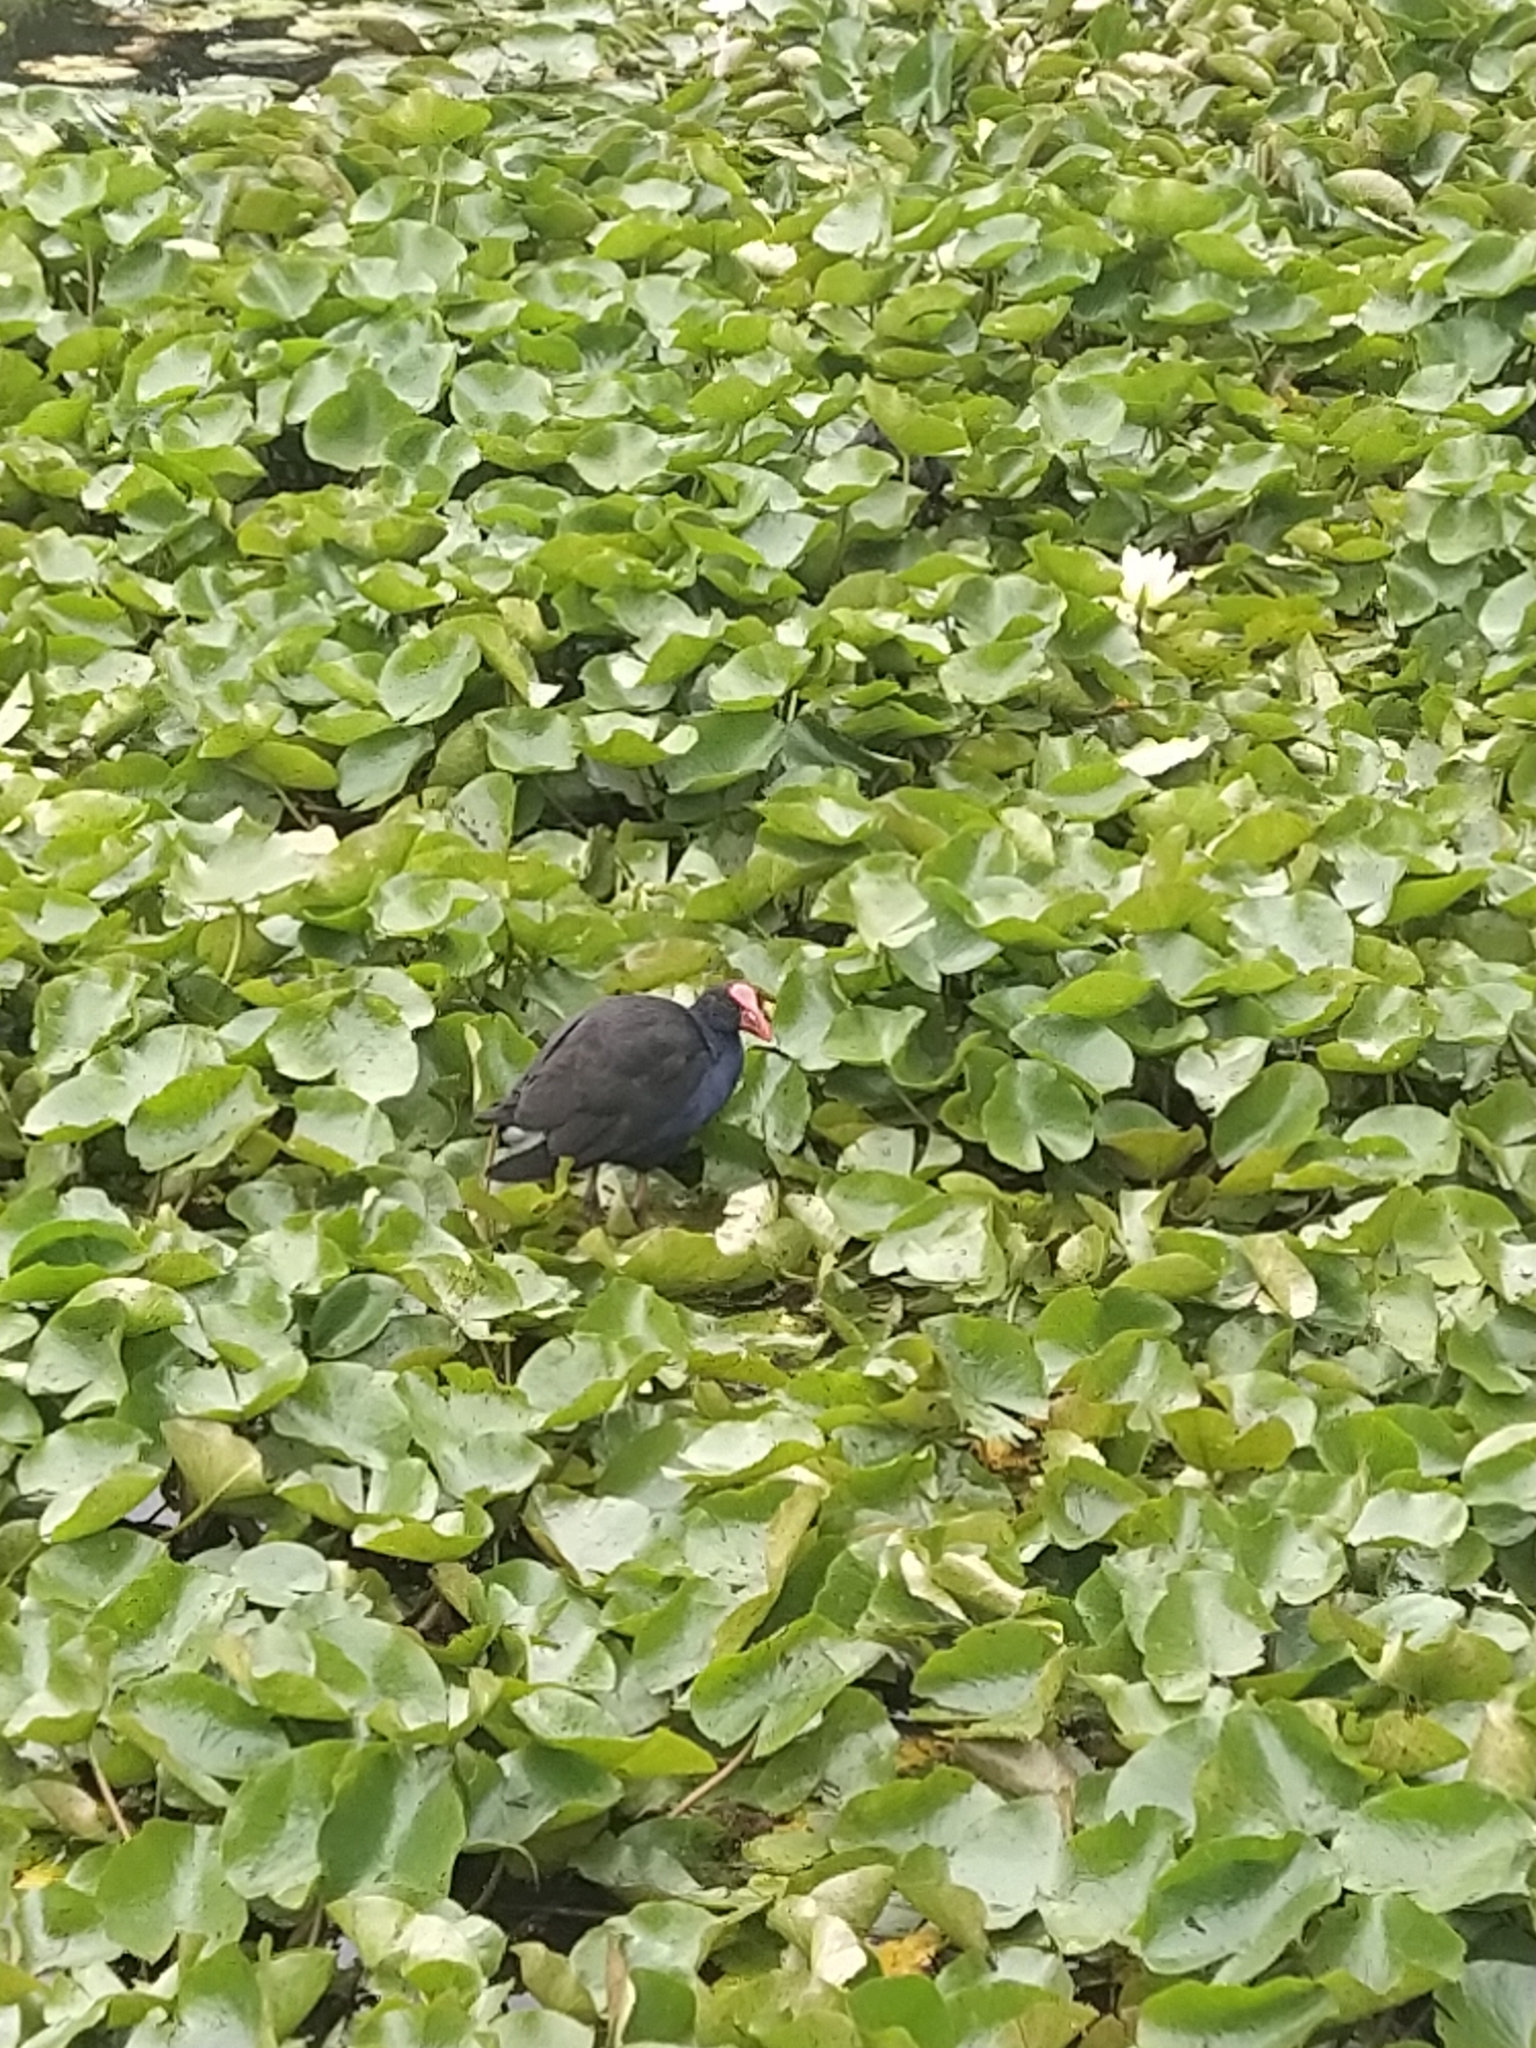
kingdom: Animalia
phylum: Chordata
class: Aves
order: Gruiformes
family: Rallidae
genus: Porphyrio
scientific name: Porphyrio melanotus
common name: Australasian swamphen
